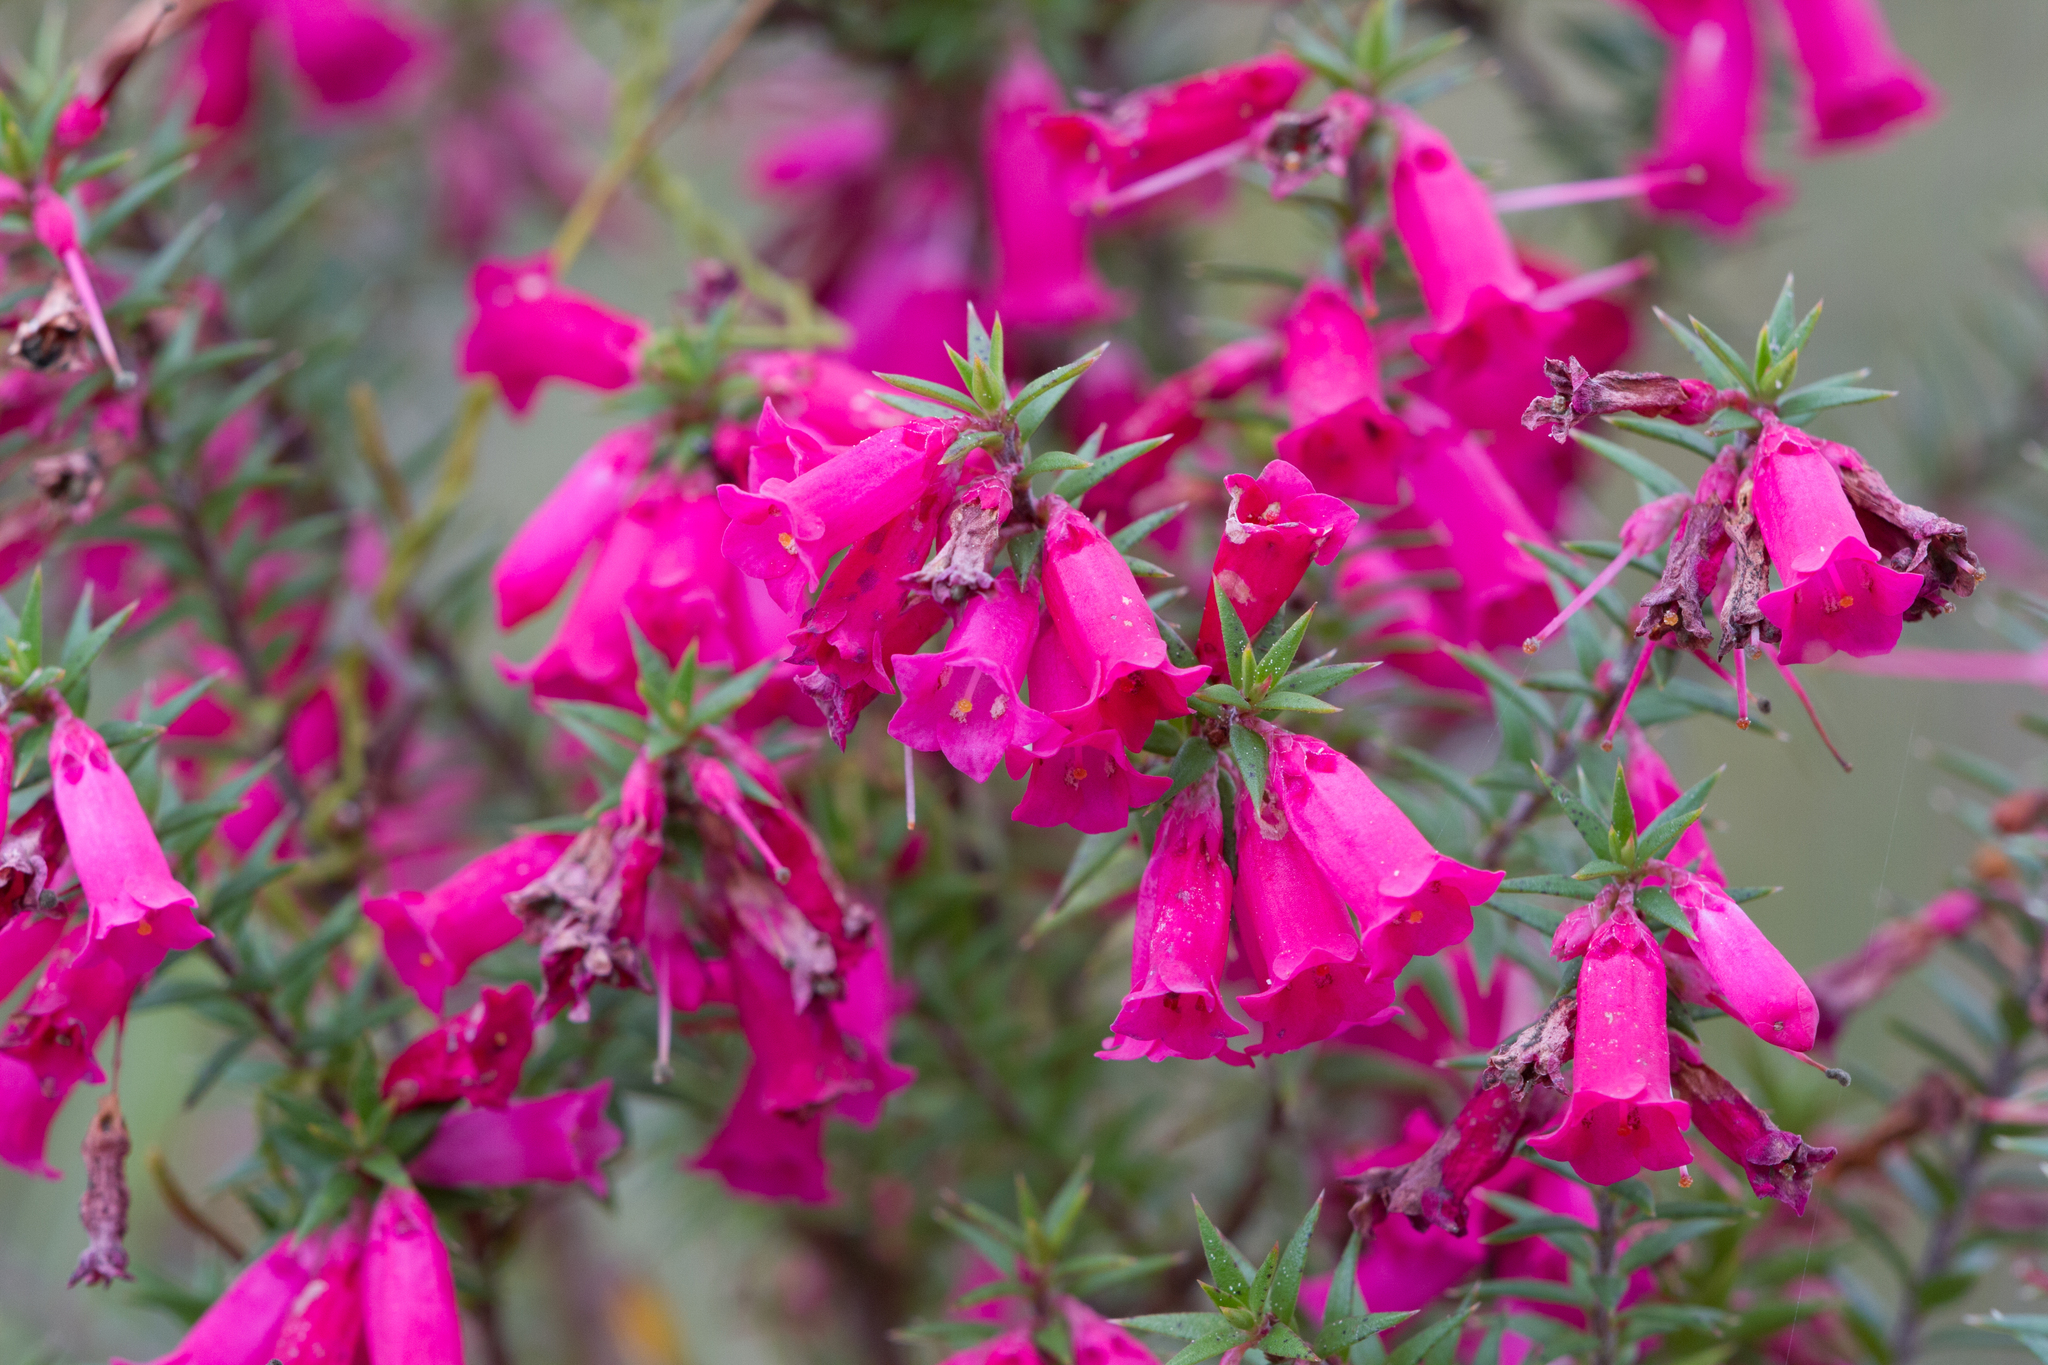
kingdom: Plantae
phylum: Tracheophyta
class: Magnoliopsida
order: Ericales
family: Ericaceae
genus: Epacris
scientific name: Epacris impressa
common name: Common-heath
